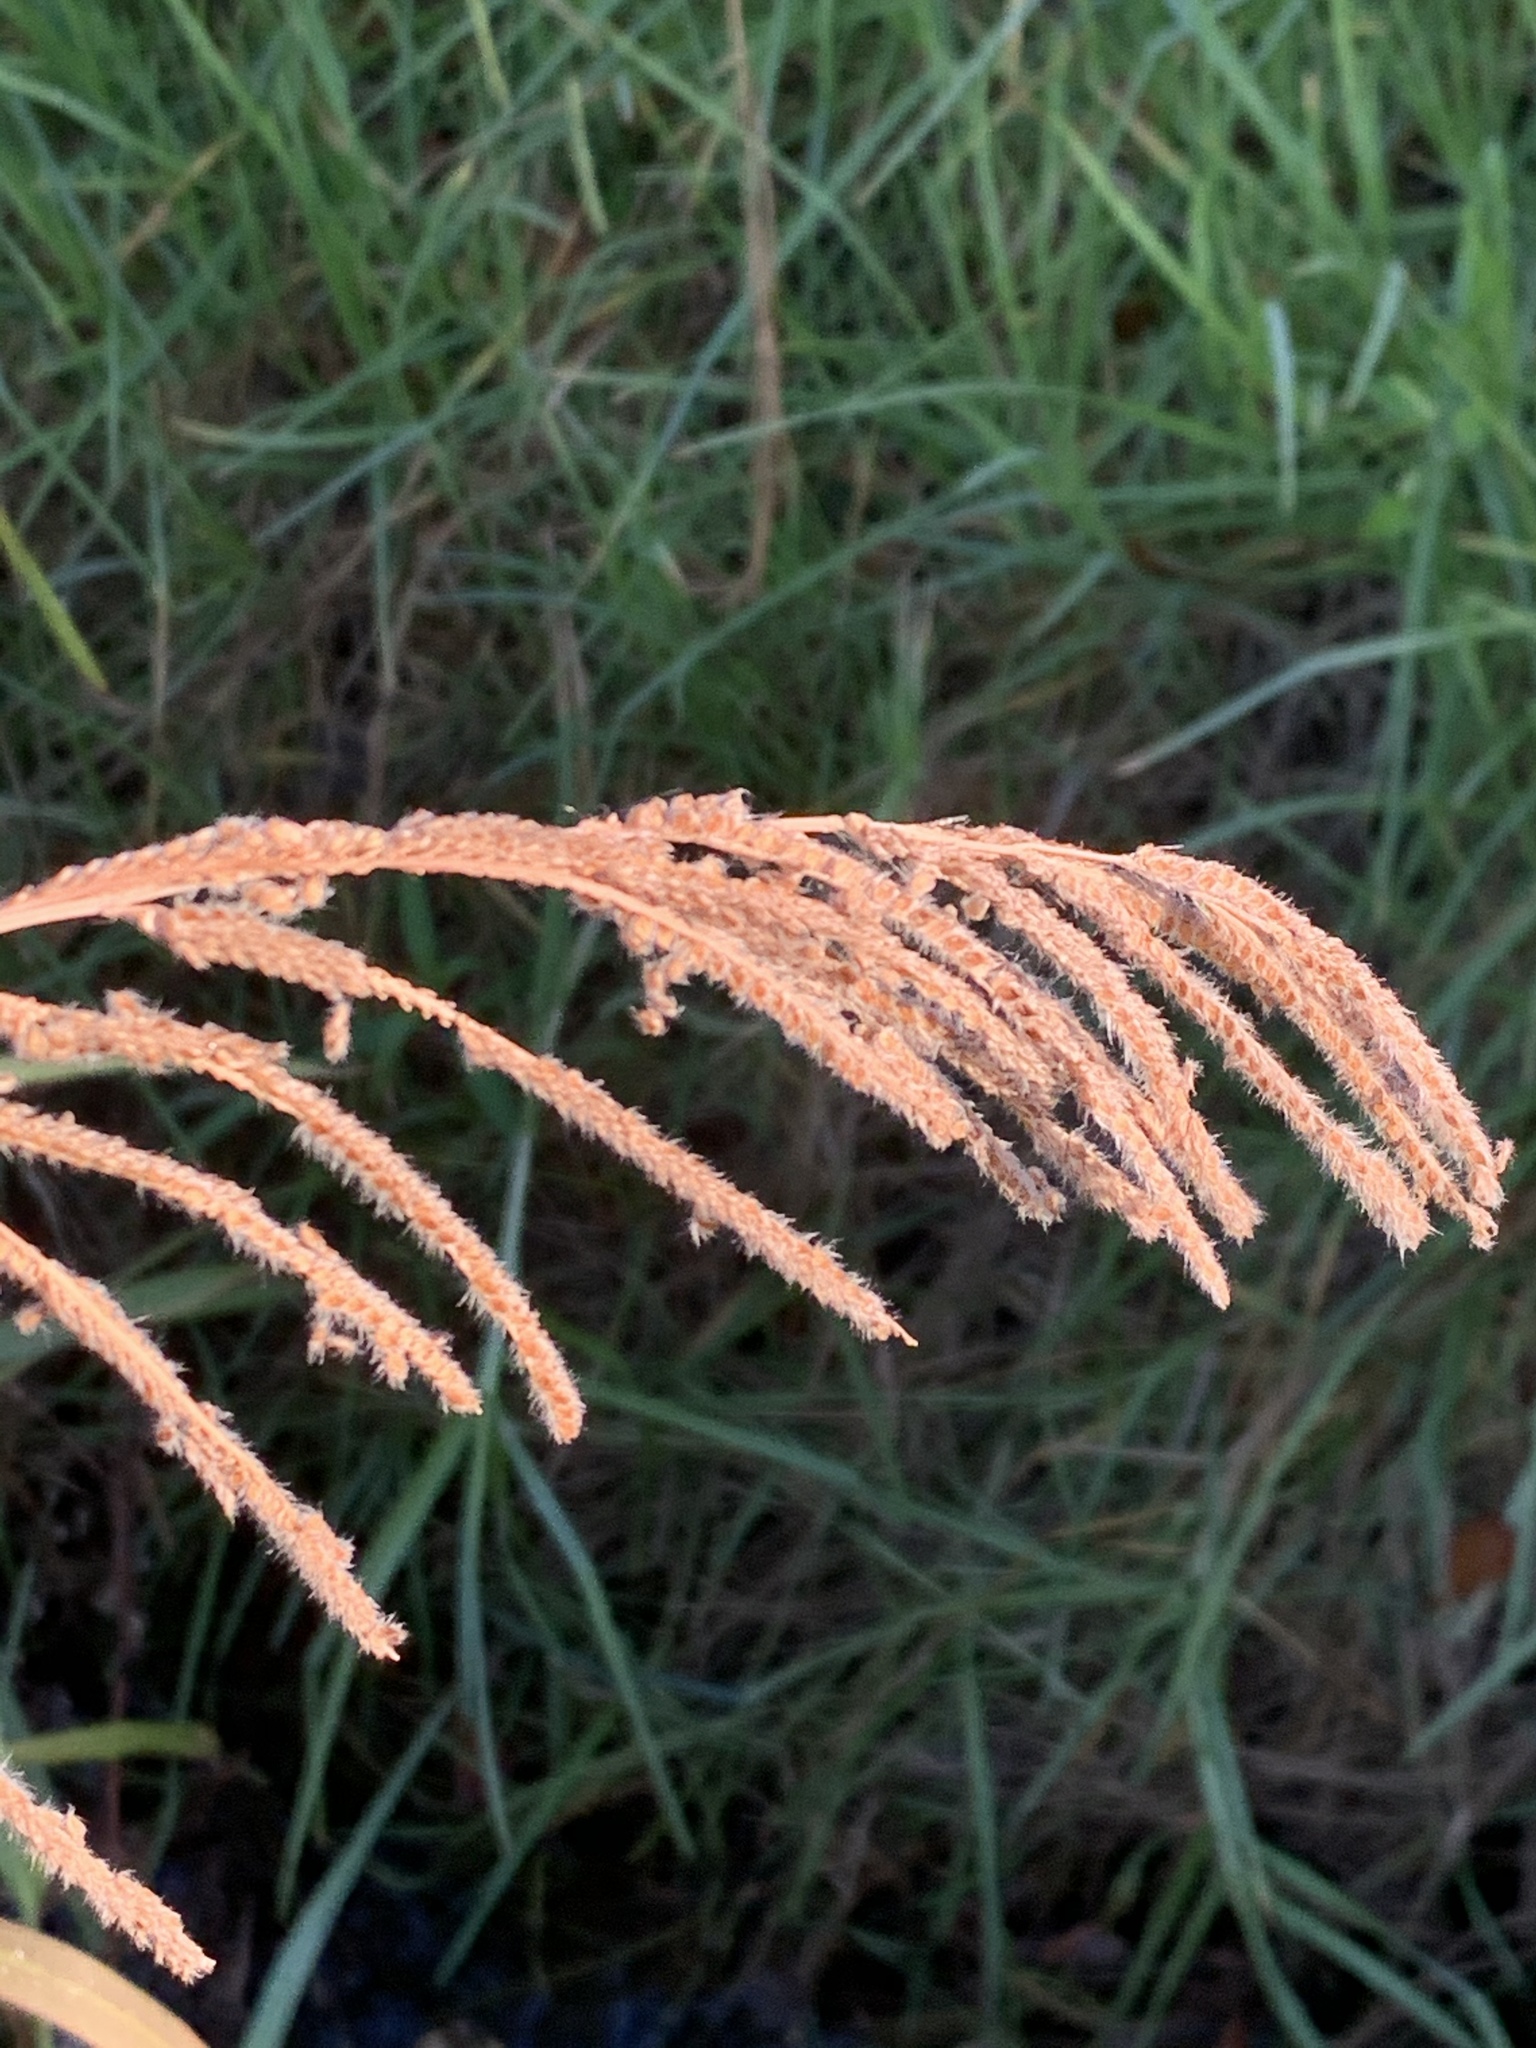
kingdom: Plantae
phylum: Tracheophyta
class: Liliopsida
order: Poales
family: Poaceae
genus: Paspalum
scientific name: Paspalum urvillei
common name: Vasey's grass
